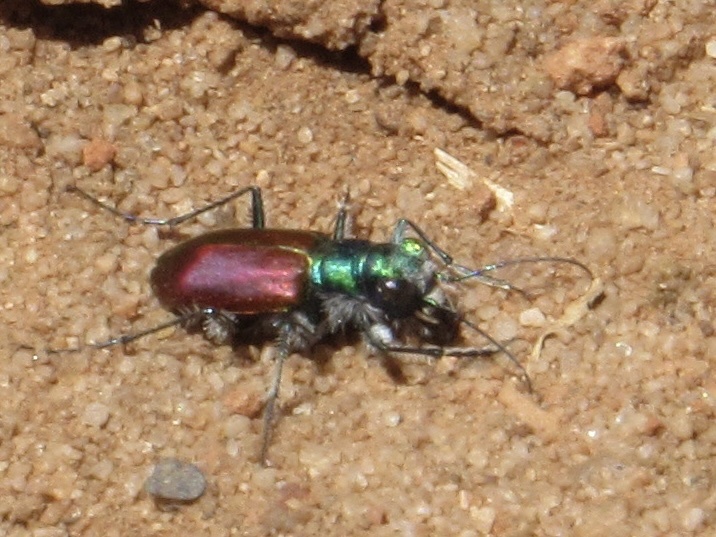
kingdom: Animalia
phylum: Arthropoda
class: Insecta
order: Coleoptera
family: Carabidae
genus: Cicindela
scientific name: Cicindela scutellaris
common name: Festive tiger beetle
